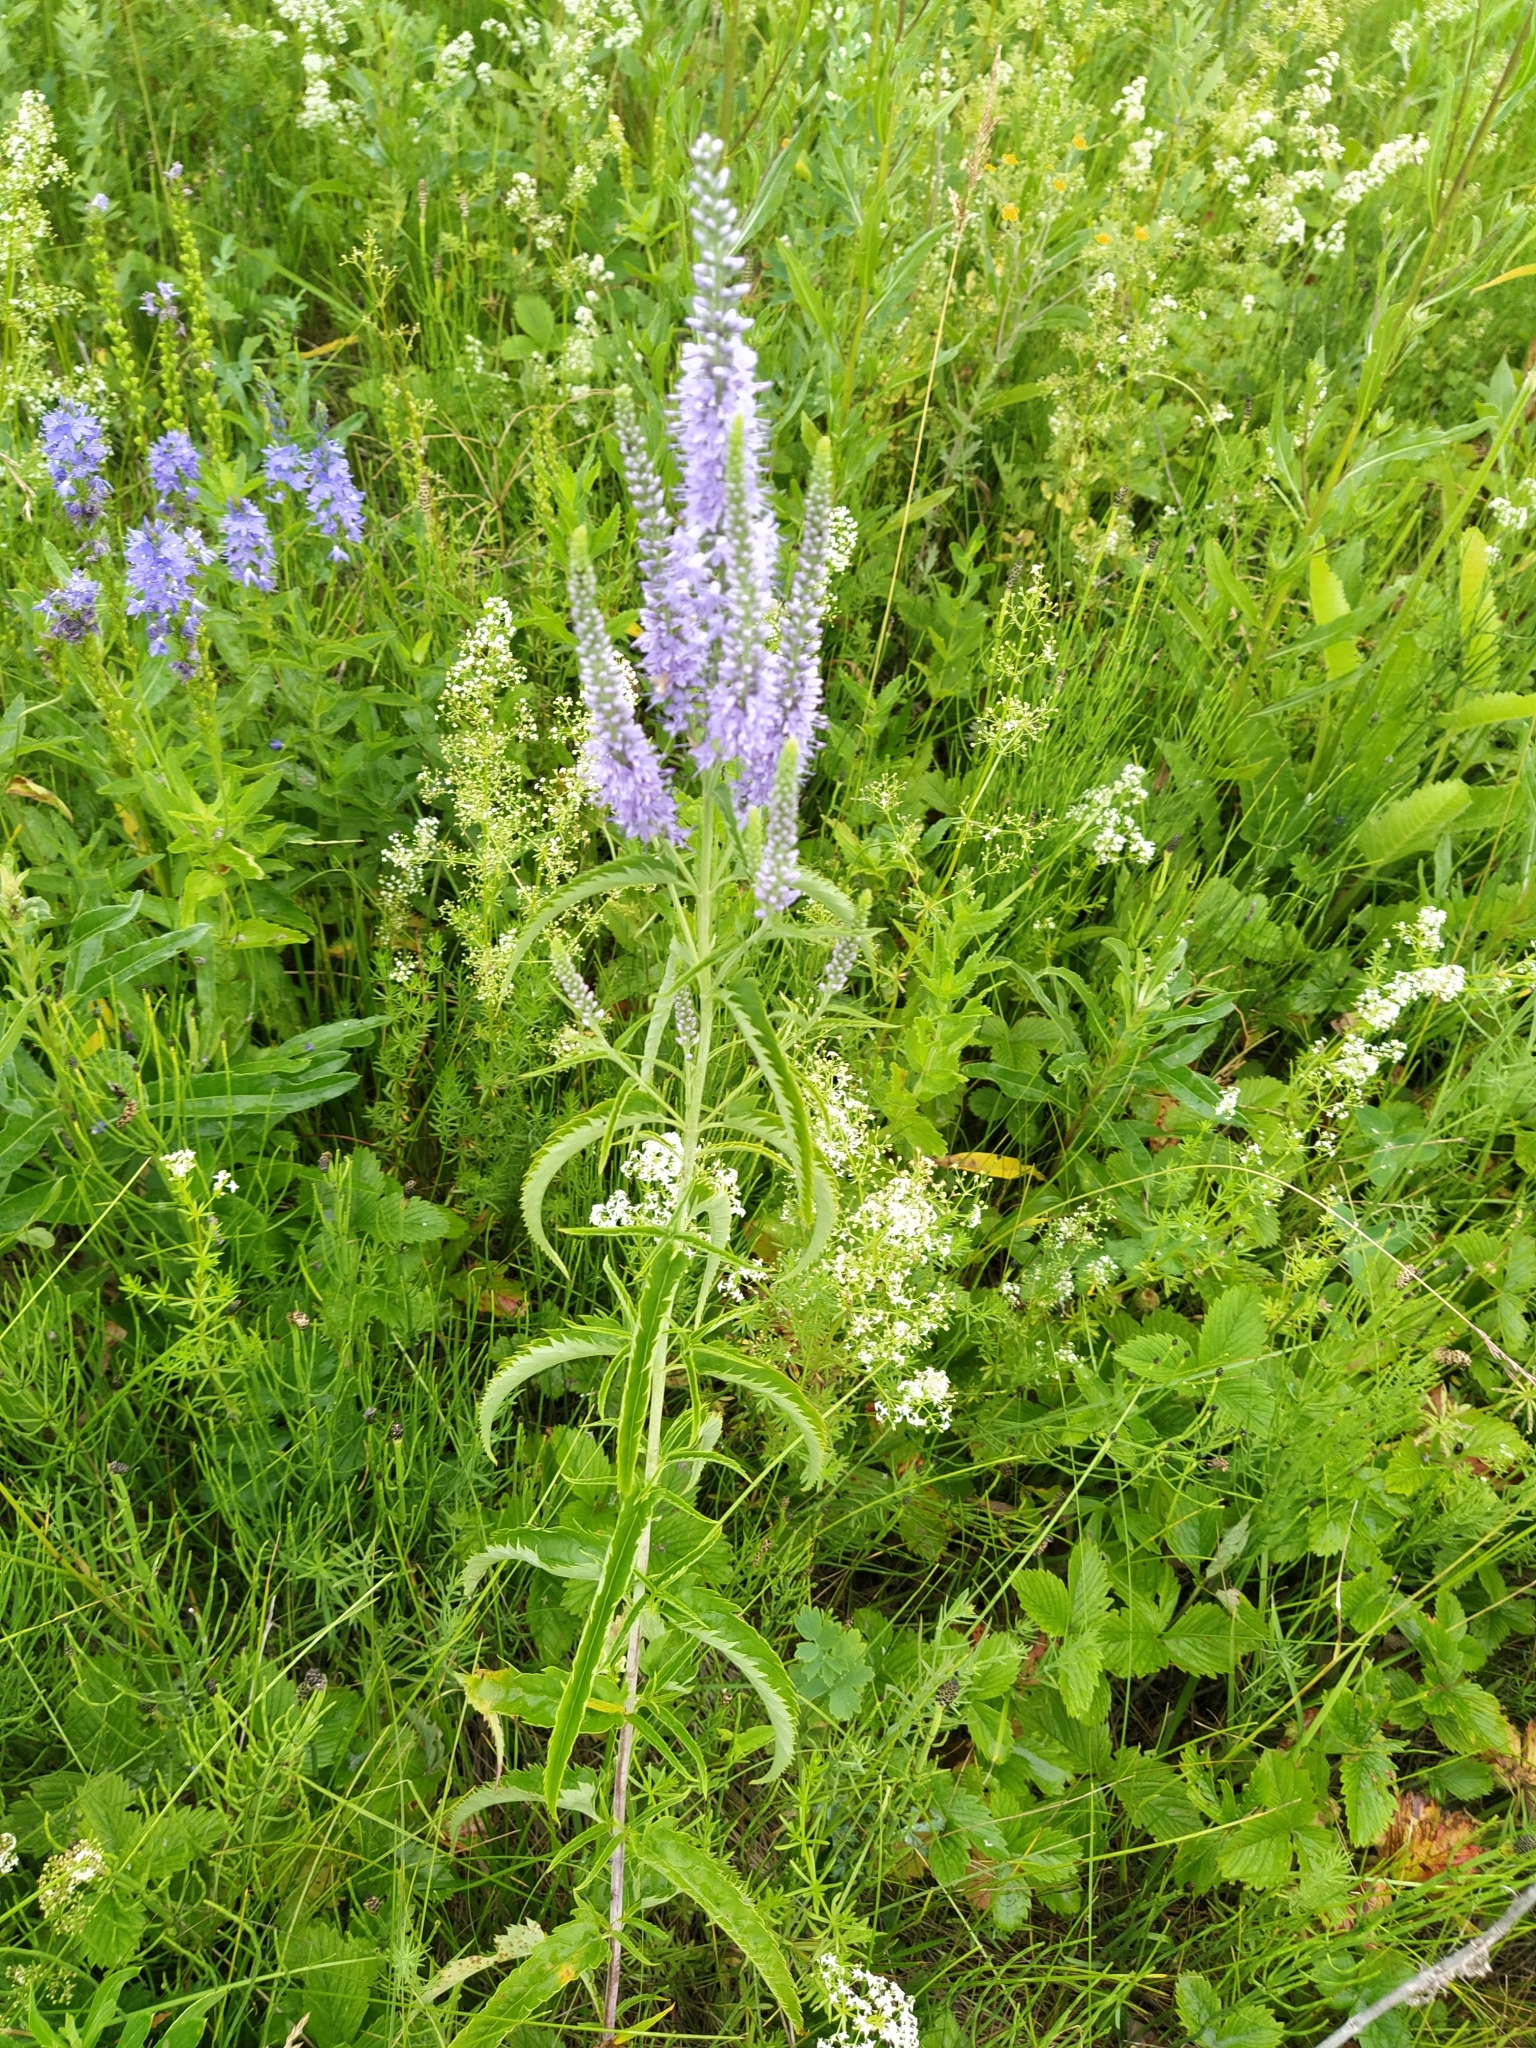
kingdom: Plantae
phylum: Tracheophyta
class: Magnoliopsida
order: Lamiales
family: Plantaginaceae
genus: Veronica
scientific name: Veronica longifolia
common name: Garden speedwell
